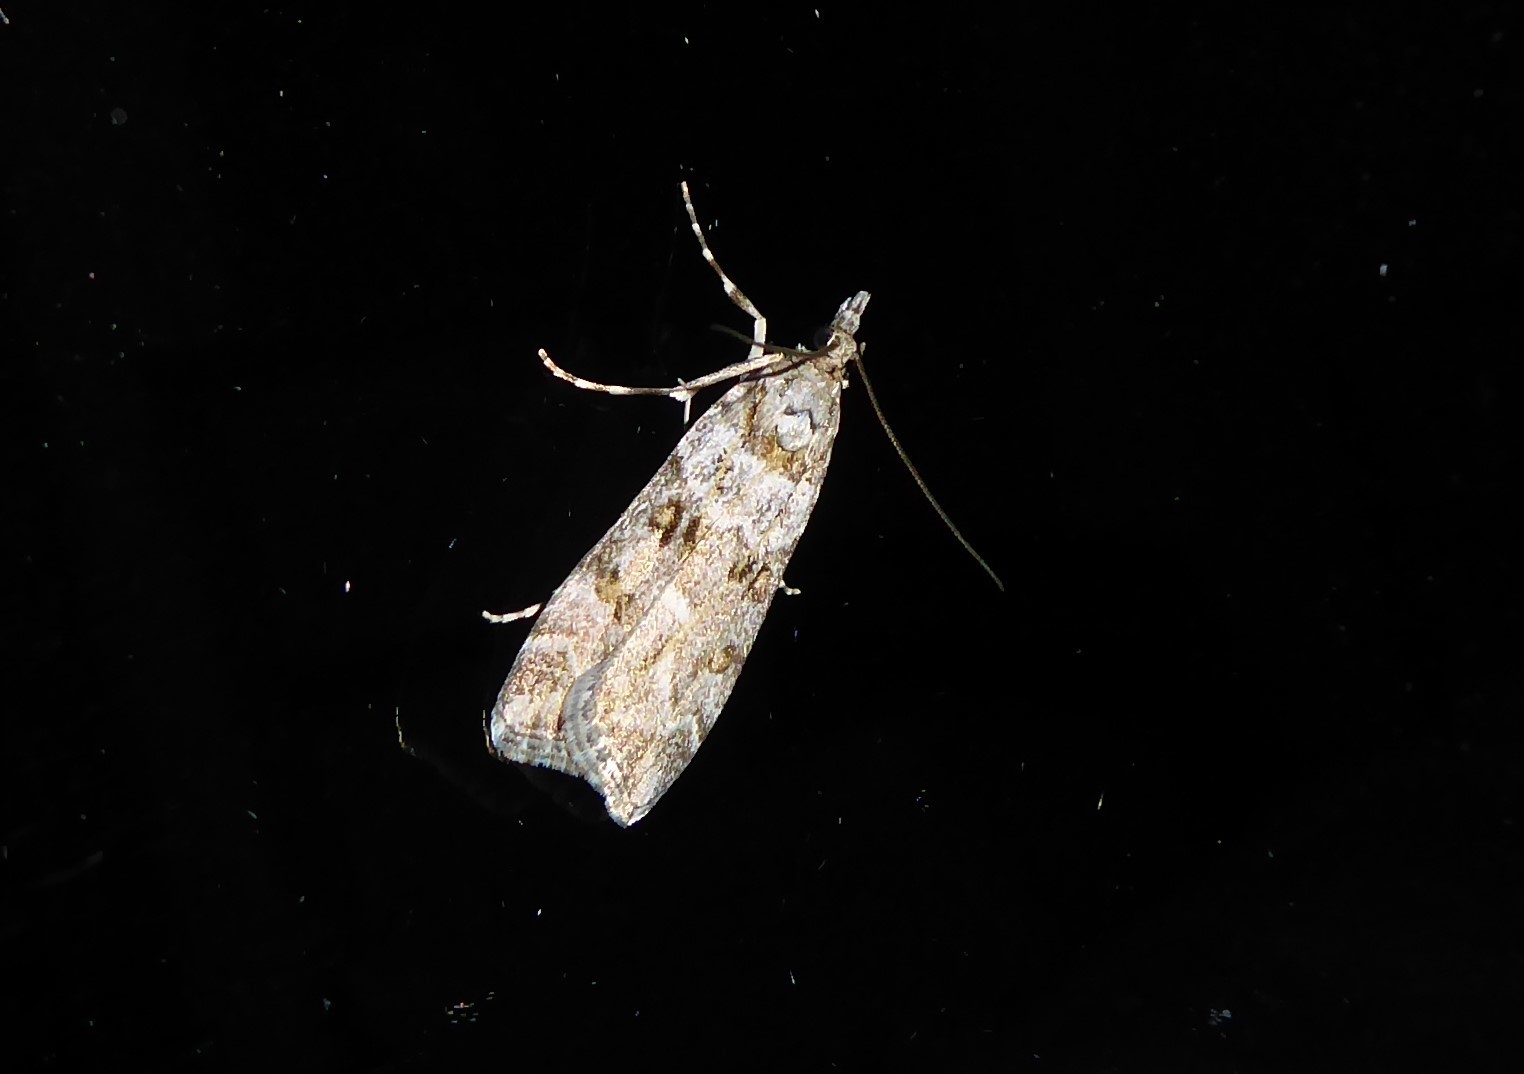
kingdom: Animalia
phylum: Arthropoda
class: Insecta
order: Lepidoptera
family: Crambidae
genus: Eudonia
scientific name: Eudonia diphtheralis
